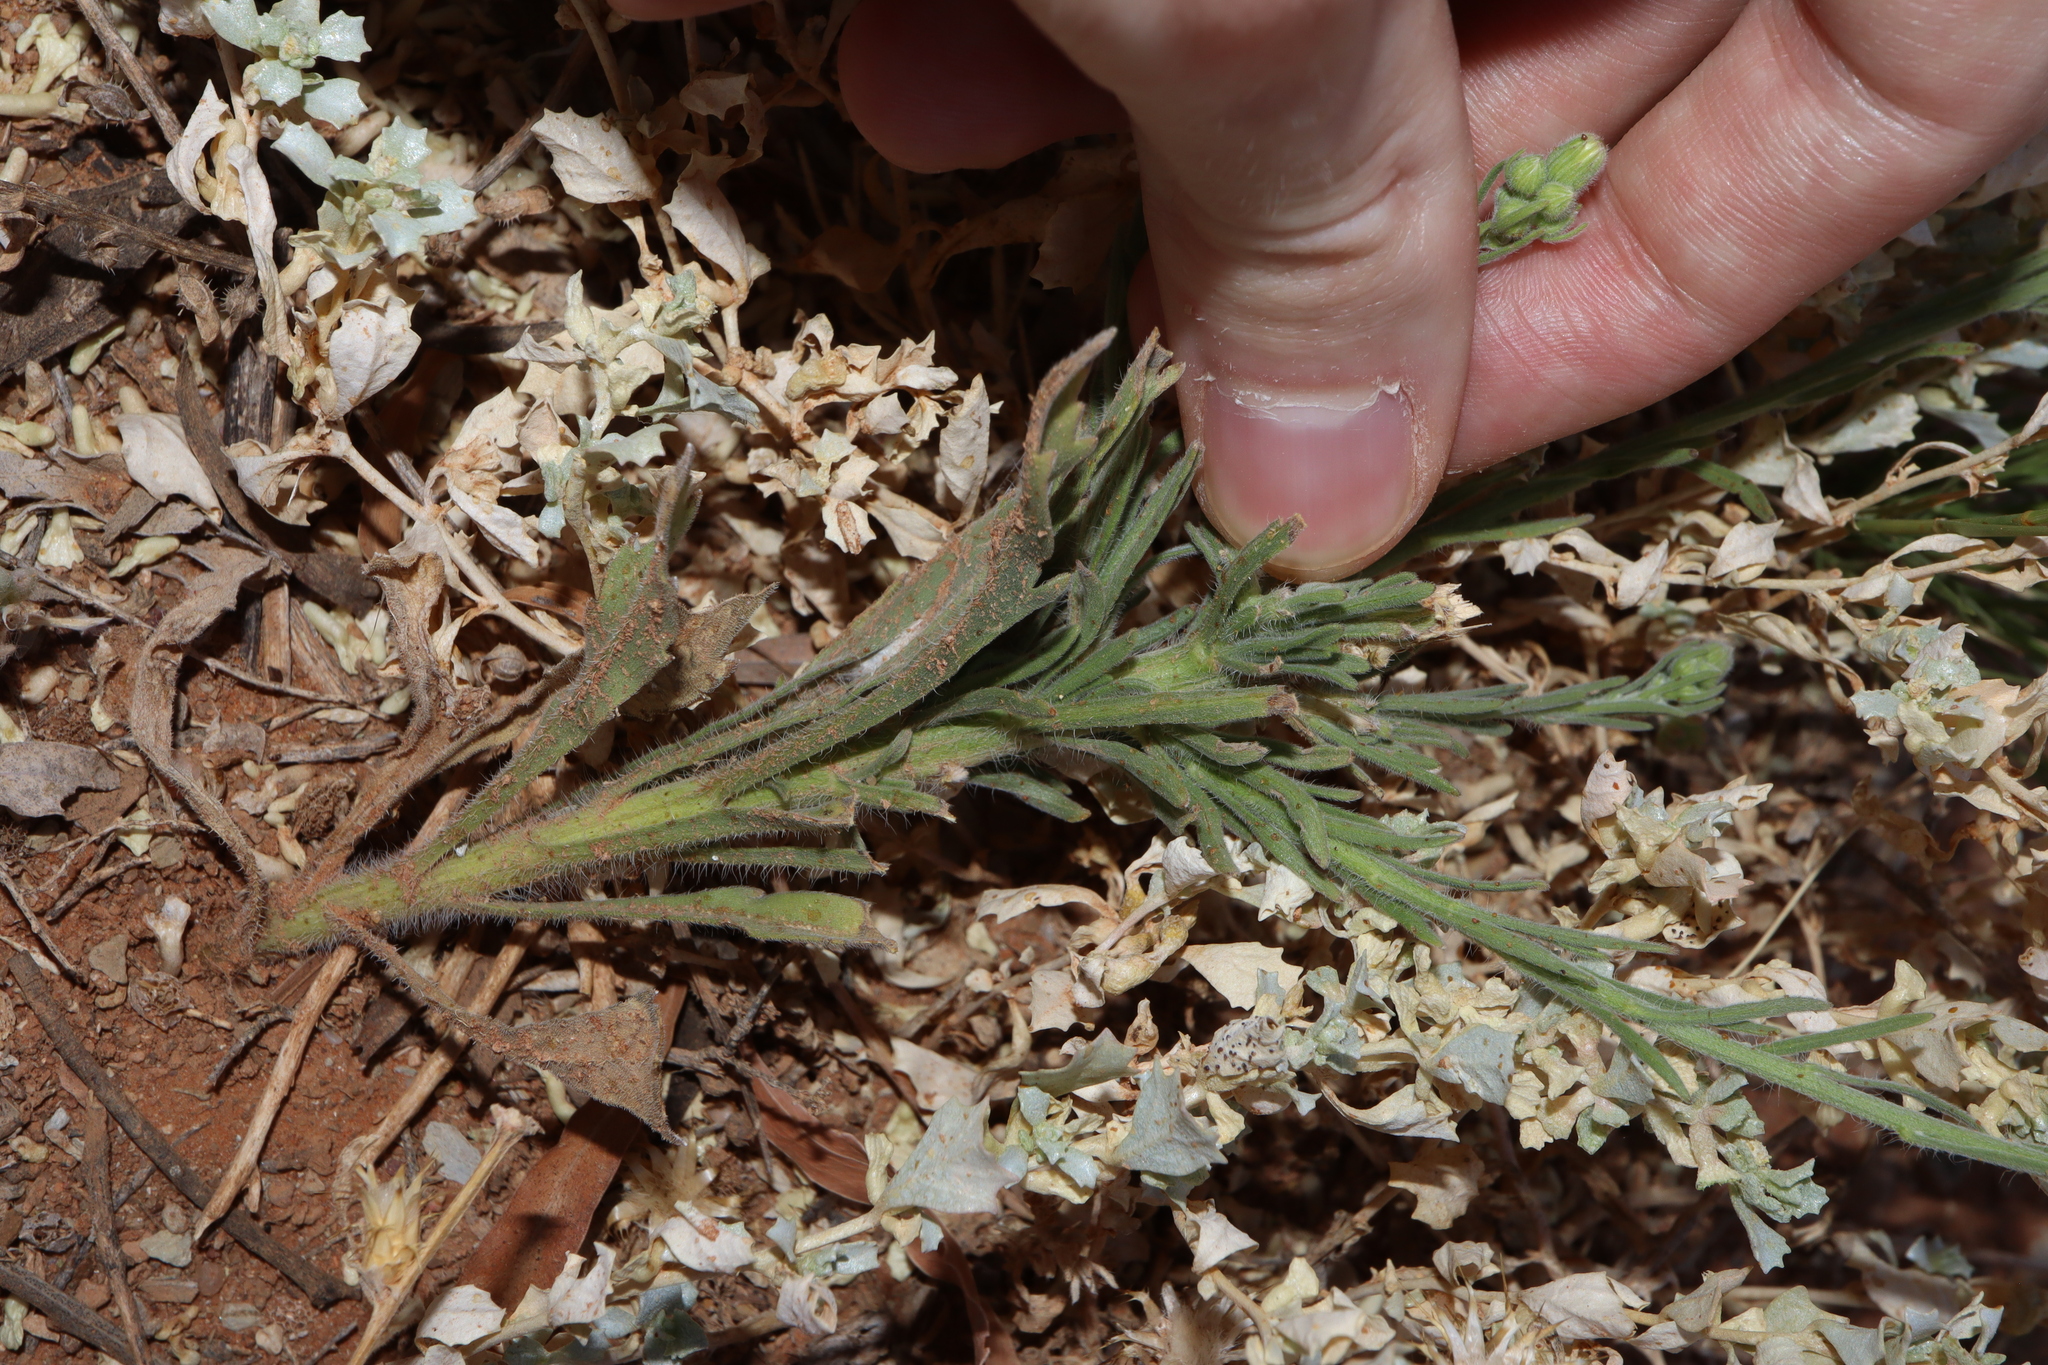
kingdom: Plantae
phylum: Tracheophyta
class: Magnoliopsida
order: Asterales
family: Asteraceae
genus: Erigeron
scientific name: Erigeron bonariensis
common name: Argentine fleabane
